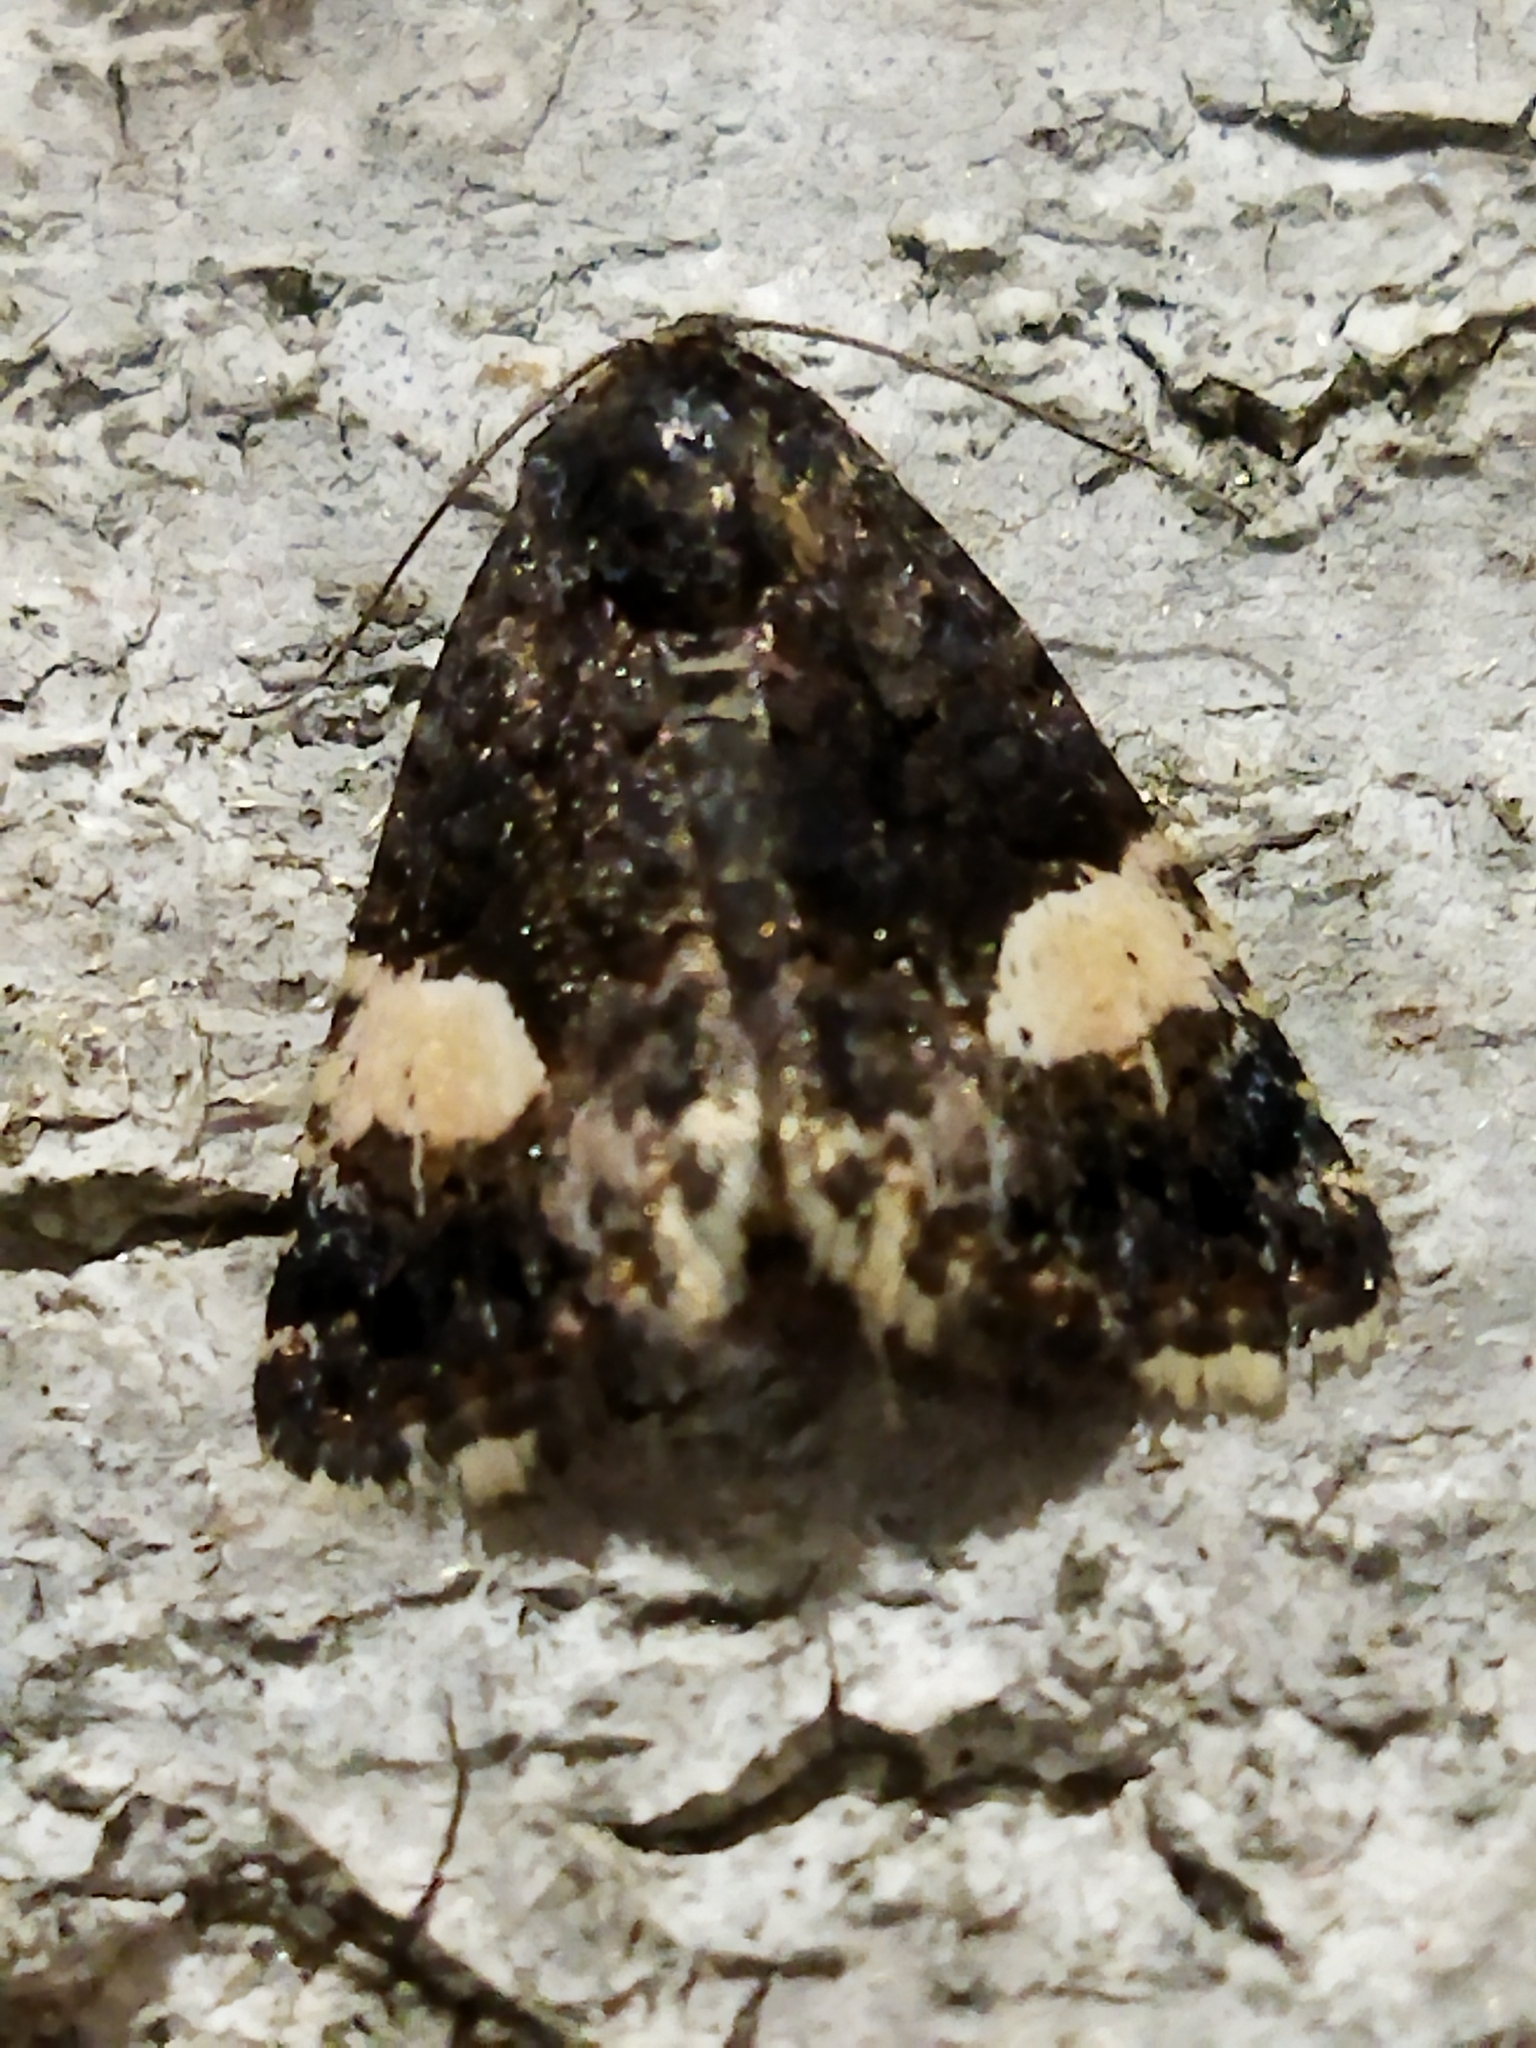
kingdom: Animalia
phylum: Arthropoda
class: Insecta
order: Lepidoptera
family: Erebidae
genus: Tyta
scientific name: Tyta luctuosa
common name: Four-spotted
